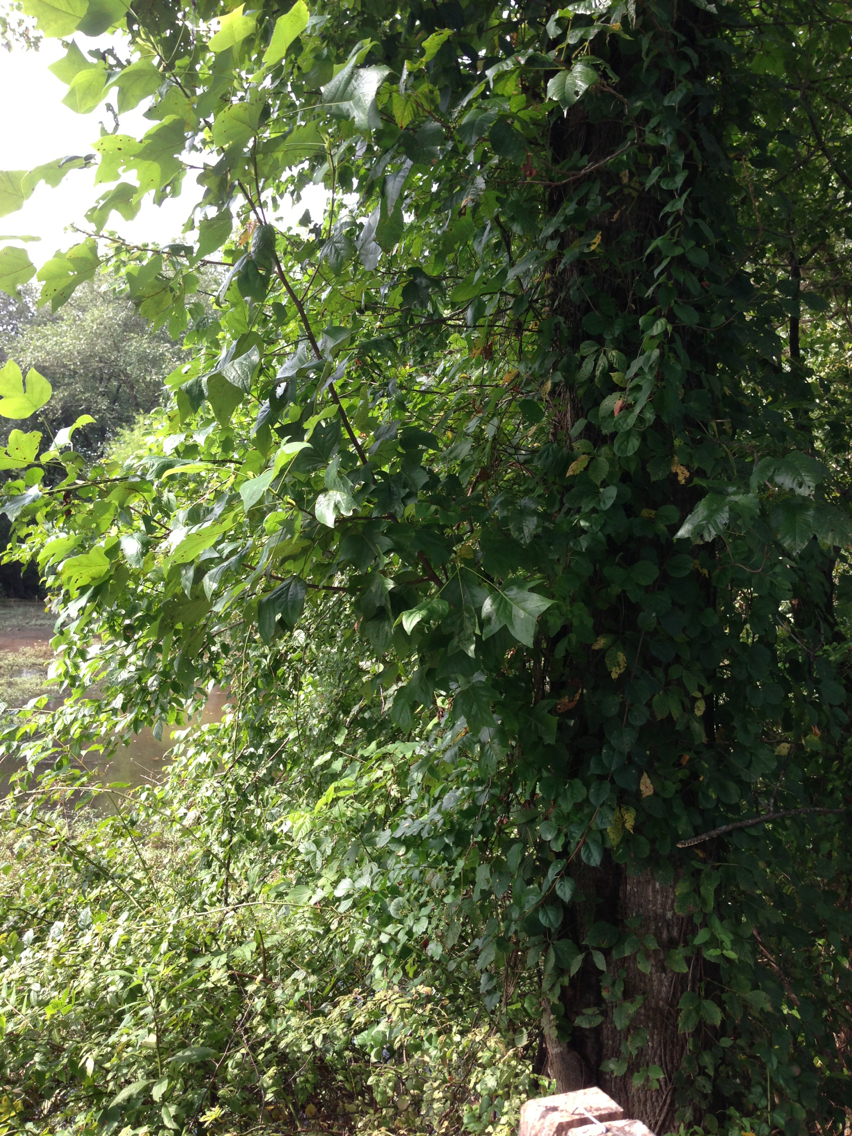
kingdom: Plantae
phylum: Tracheophyta
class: Magnoliopsida
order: Magnoliales
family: Magnoliaceae
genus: Liriodendron
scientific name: Liriodendron tulipifera
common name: Tulip tree
